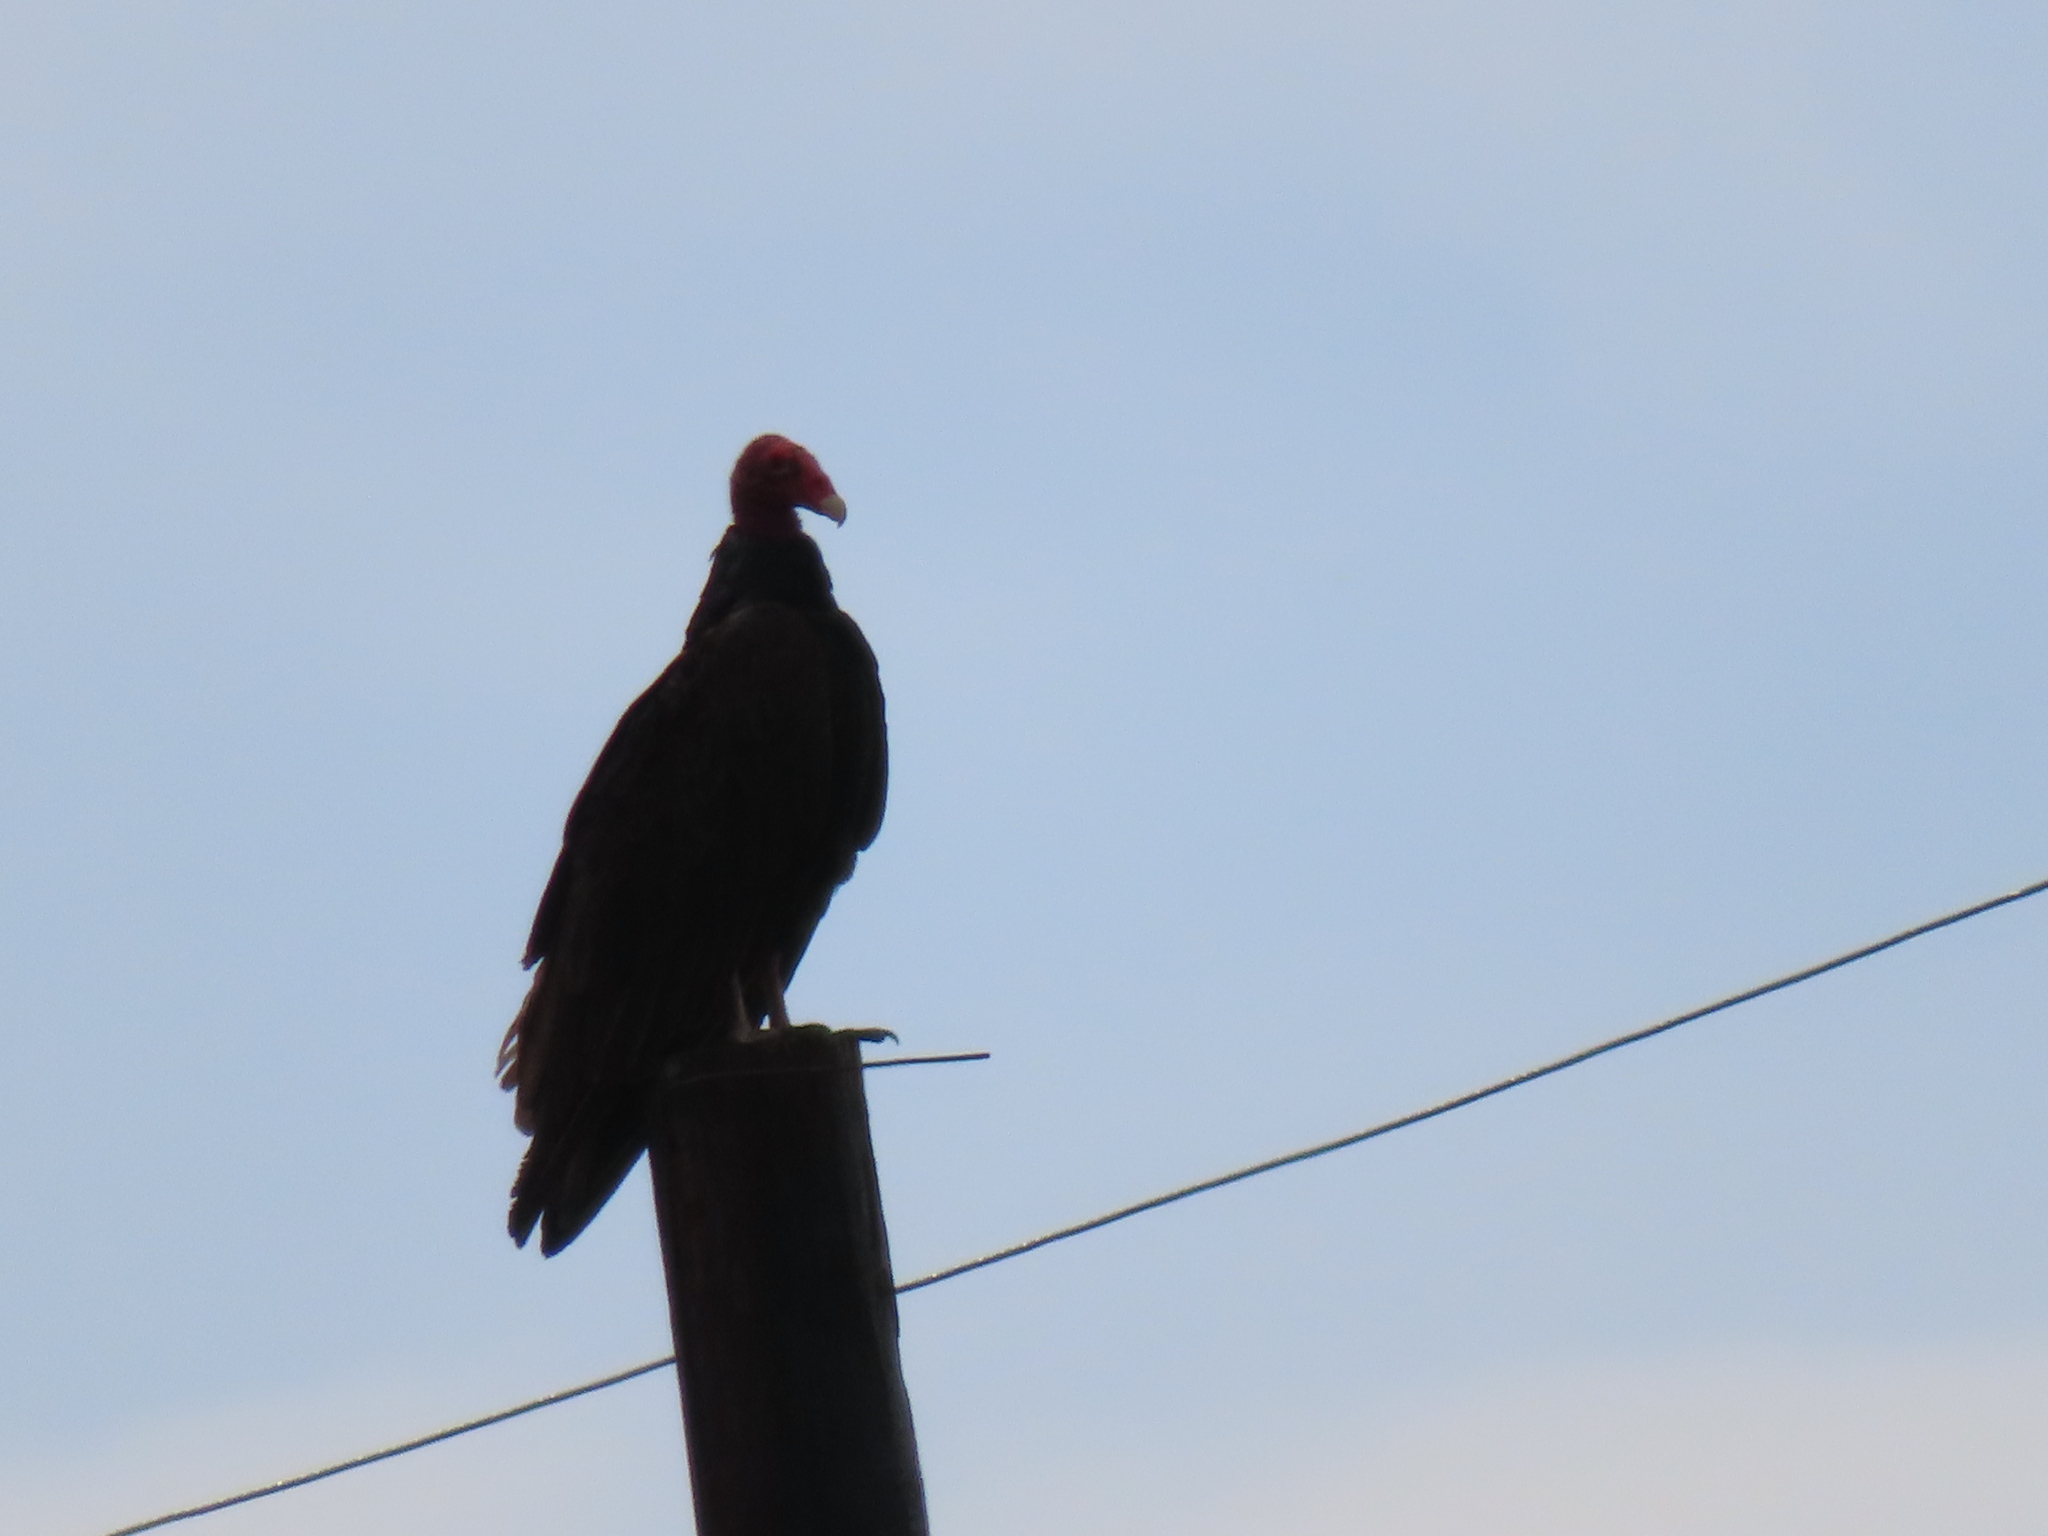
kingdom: Animalia
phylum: Chordata
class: Aves
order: Accipitriformes
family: Cathartidae
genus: Cathartes
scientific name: Cathartes aura
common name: Turkey vulture
